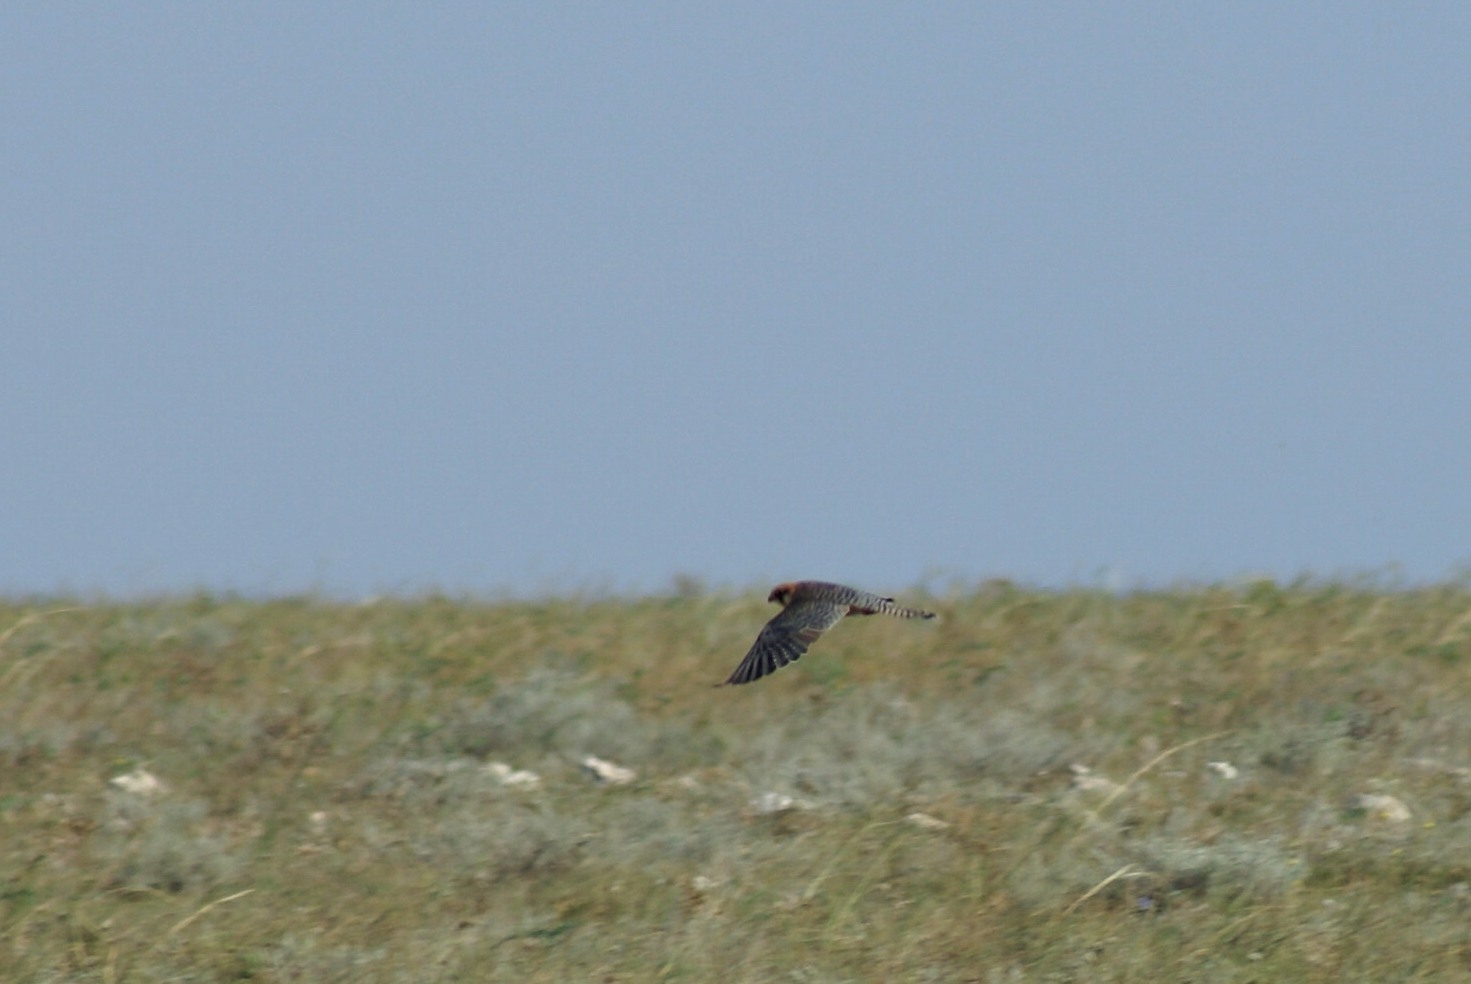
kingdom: Animalia
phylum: Chordata
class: Aves
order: Falconiformes
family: Falconidae
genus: Falco
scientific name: Falco vespertinus
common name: Red-footed falcon
